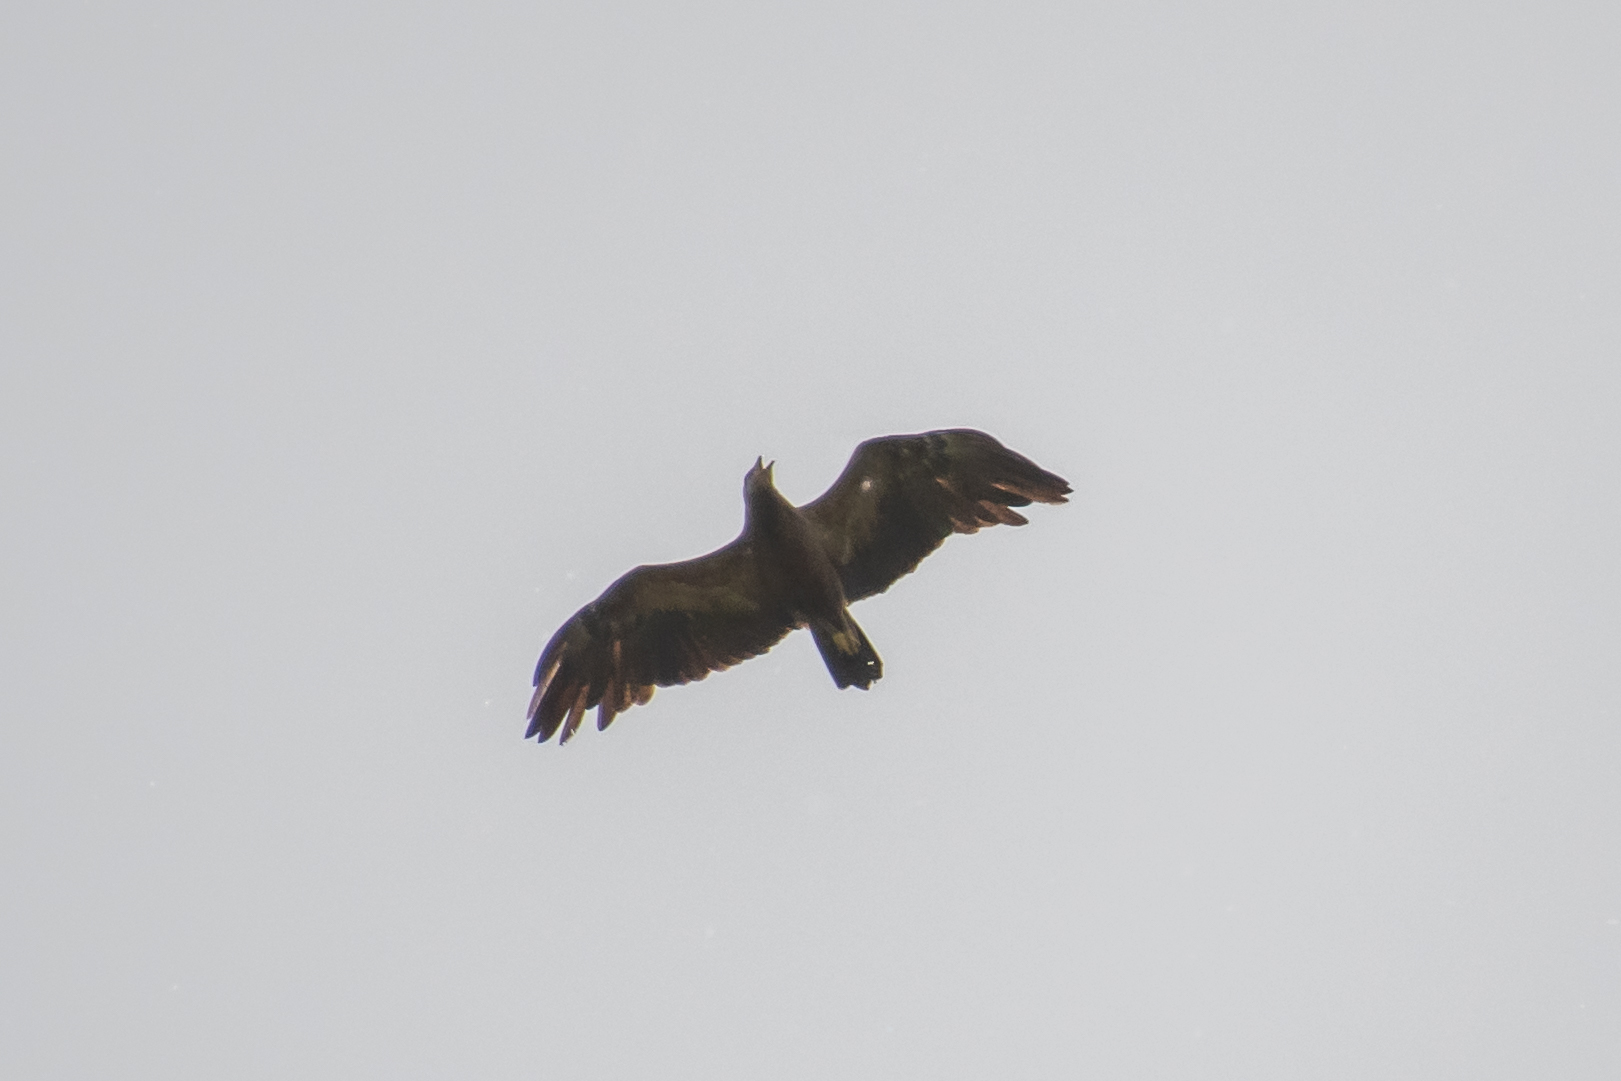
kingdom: Animalia
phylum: Chordata
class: Aves
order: Accipitriformes
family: Accipitridae
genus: Aquila
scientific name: Aquila pomarina
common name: Lesser spotted eagle
